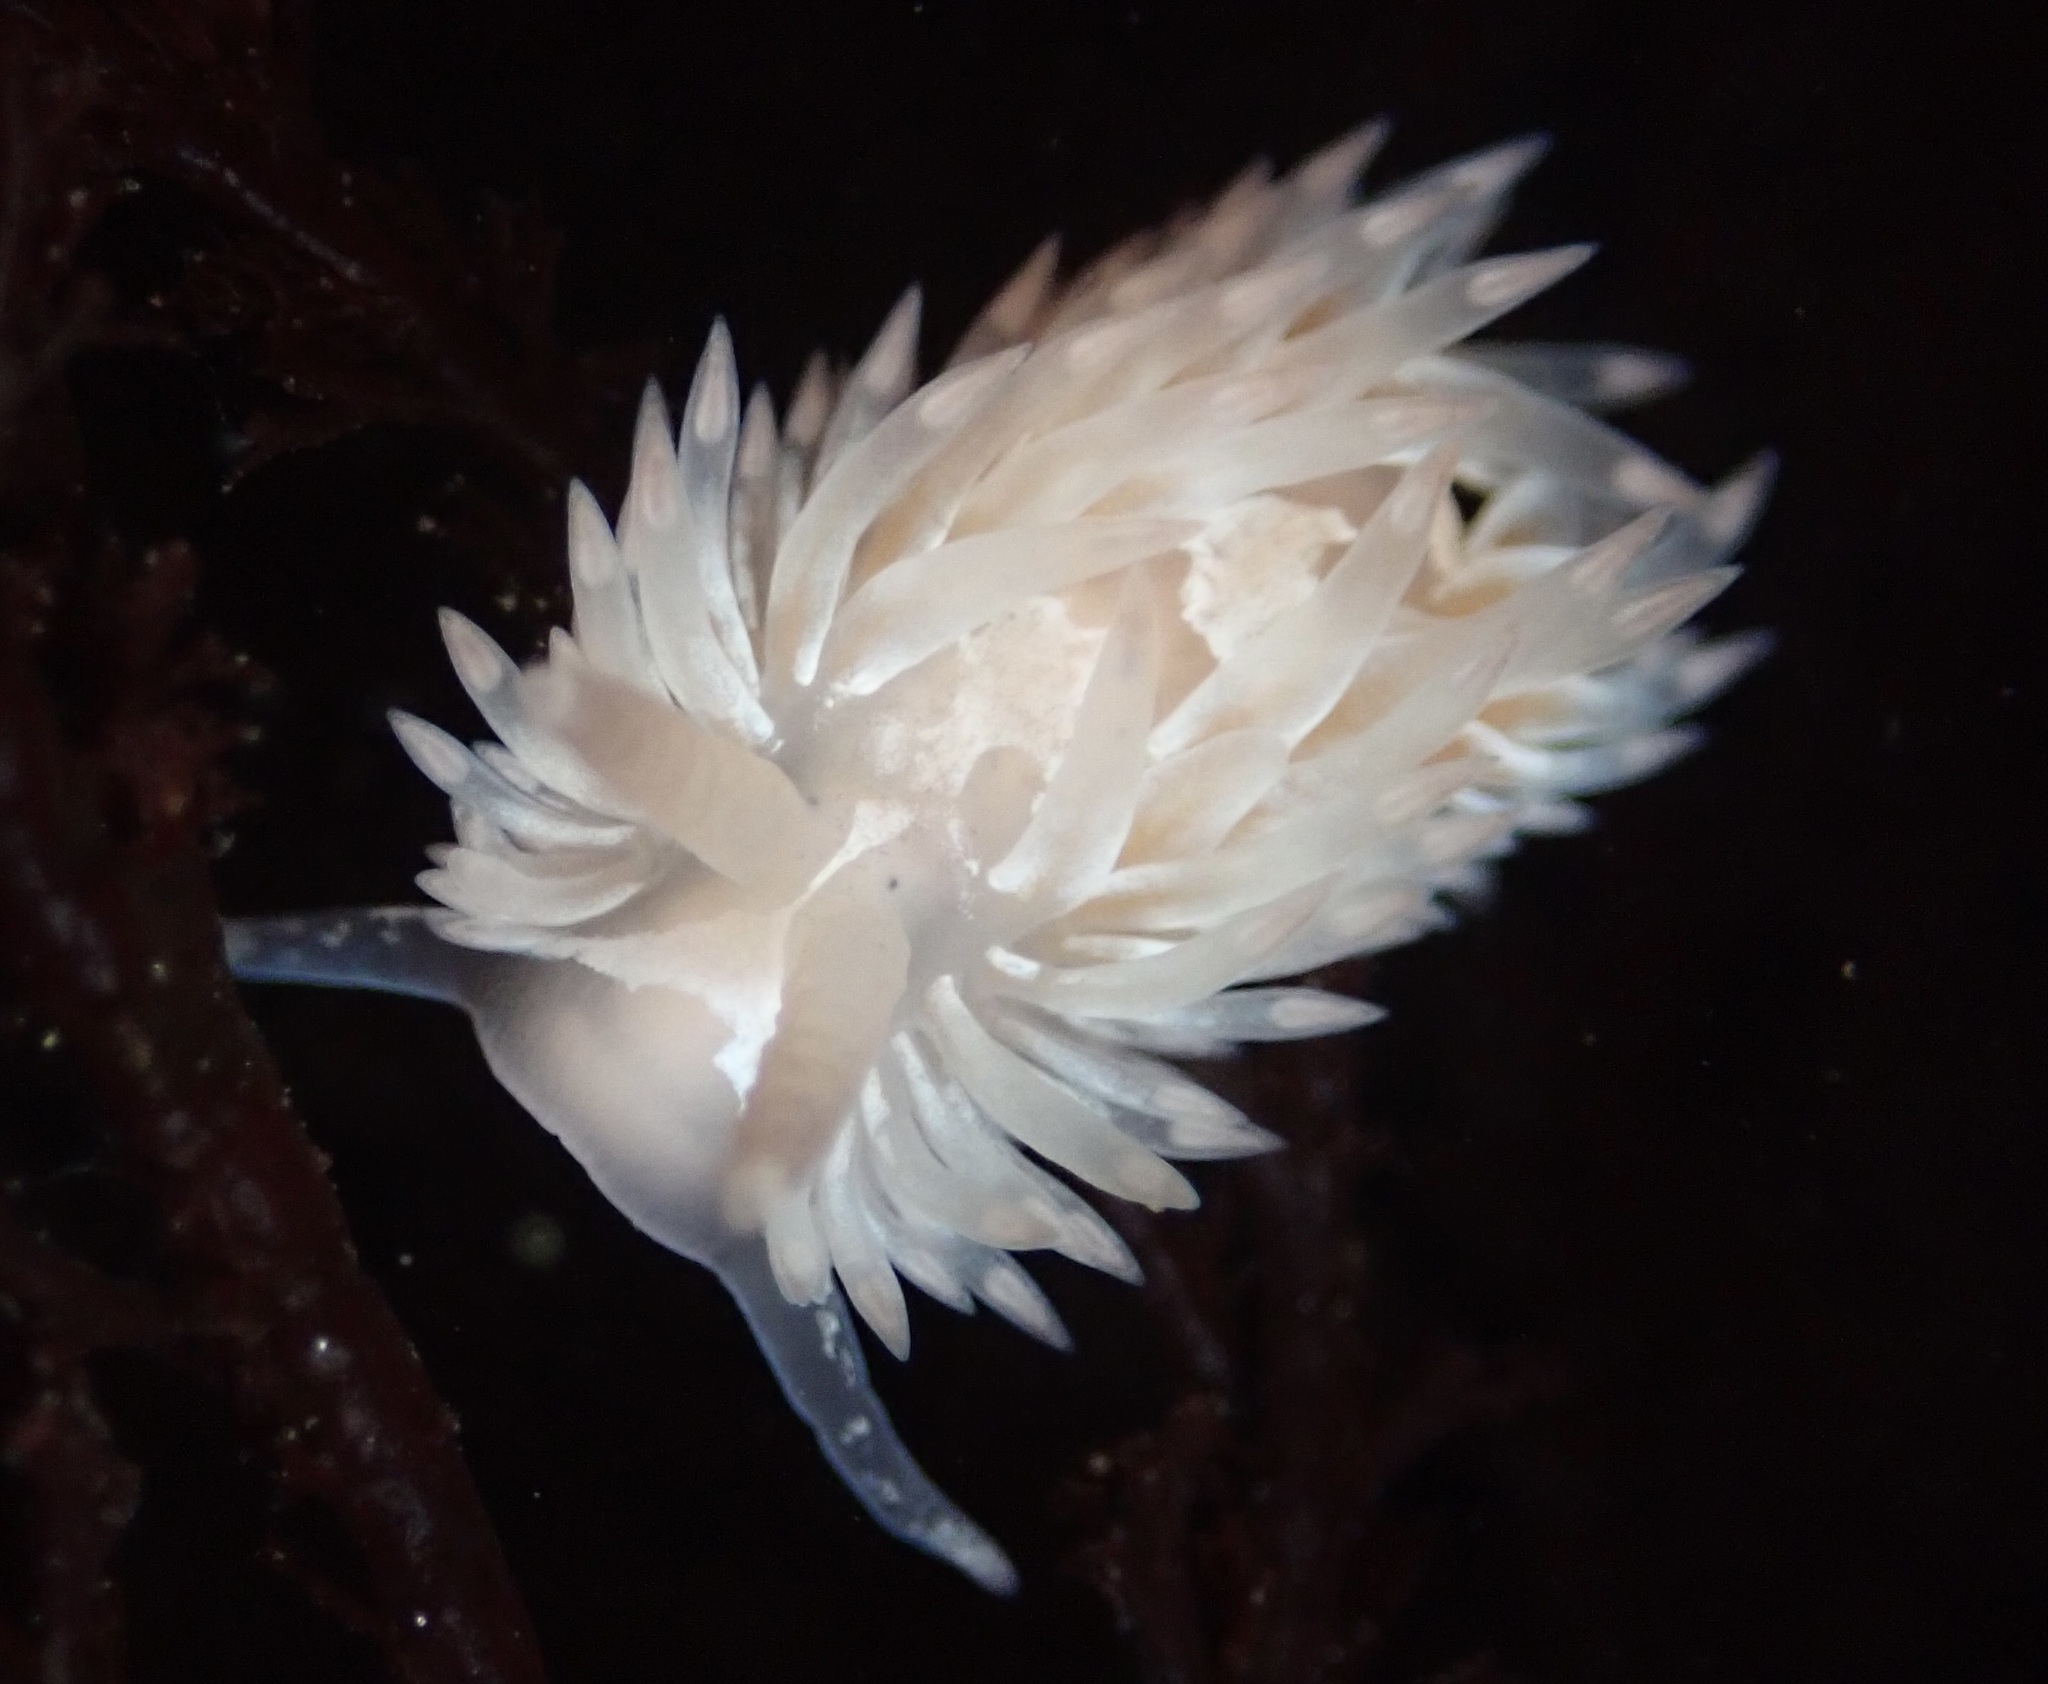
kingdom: Animalia
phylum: Mollusca
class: Gastropoda
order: Nudibranchia
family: Aeolidiidae
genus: Aeolidia
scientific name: Aeolidia loui
